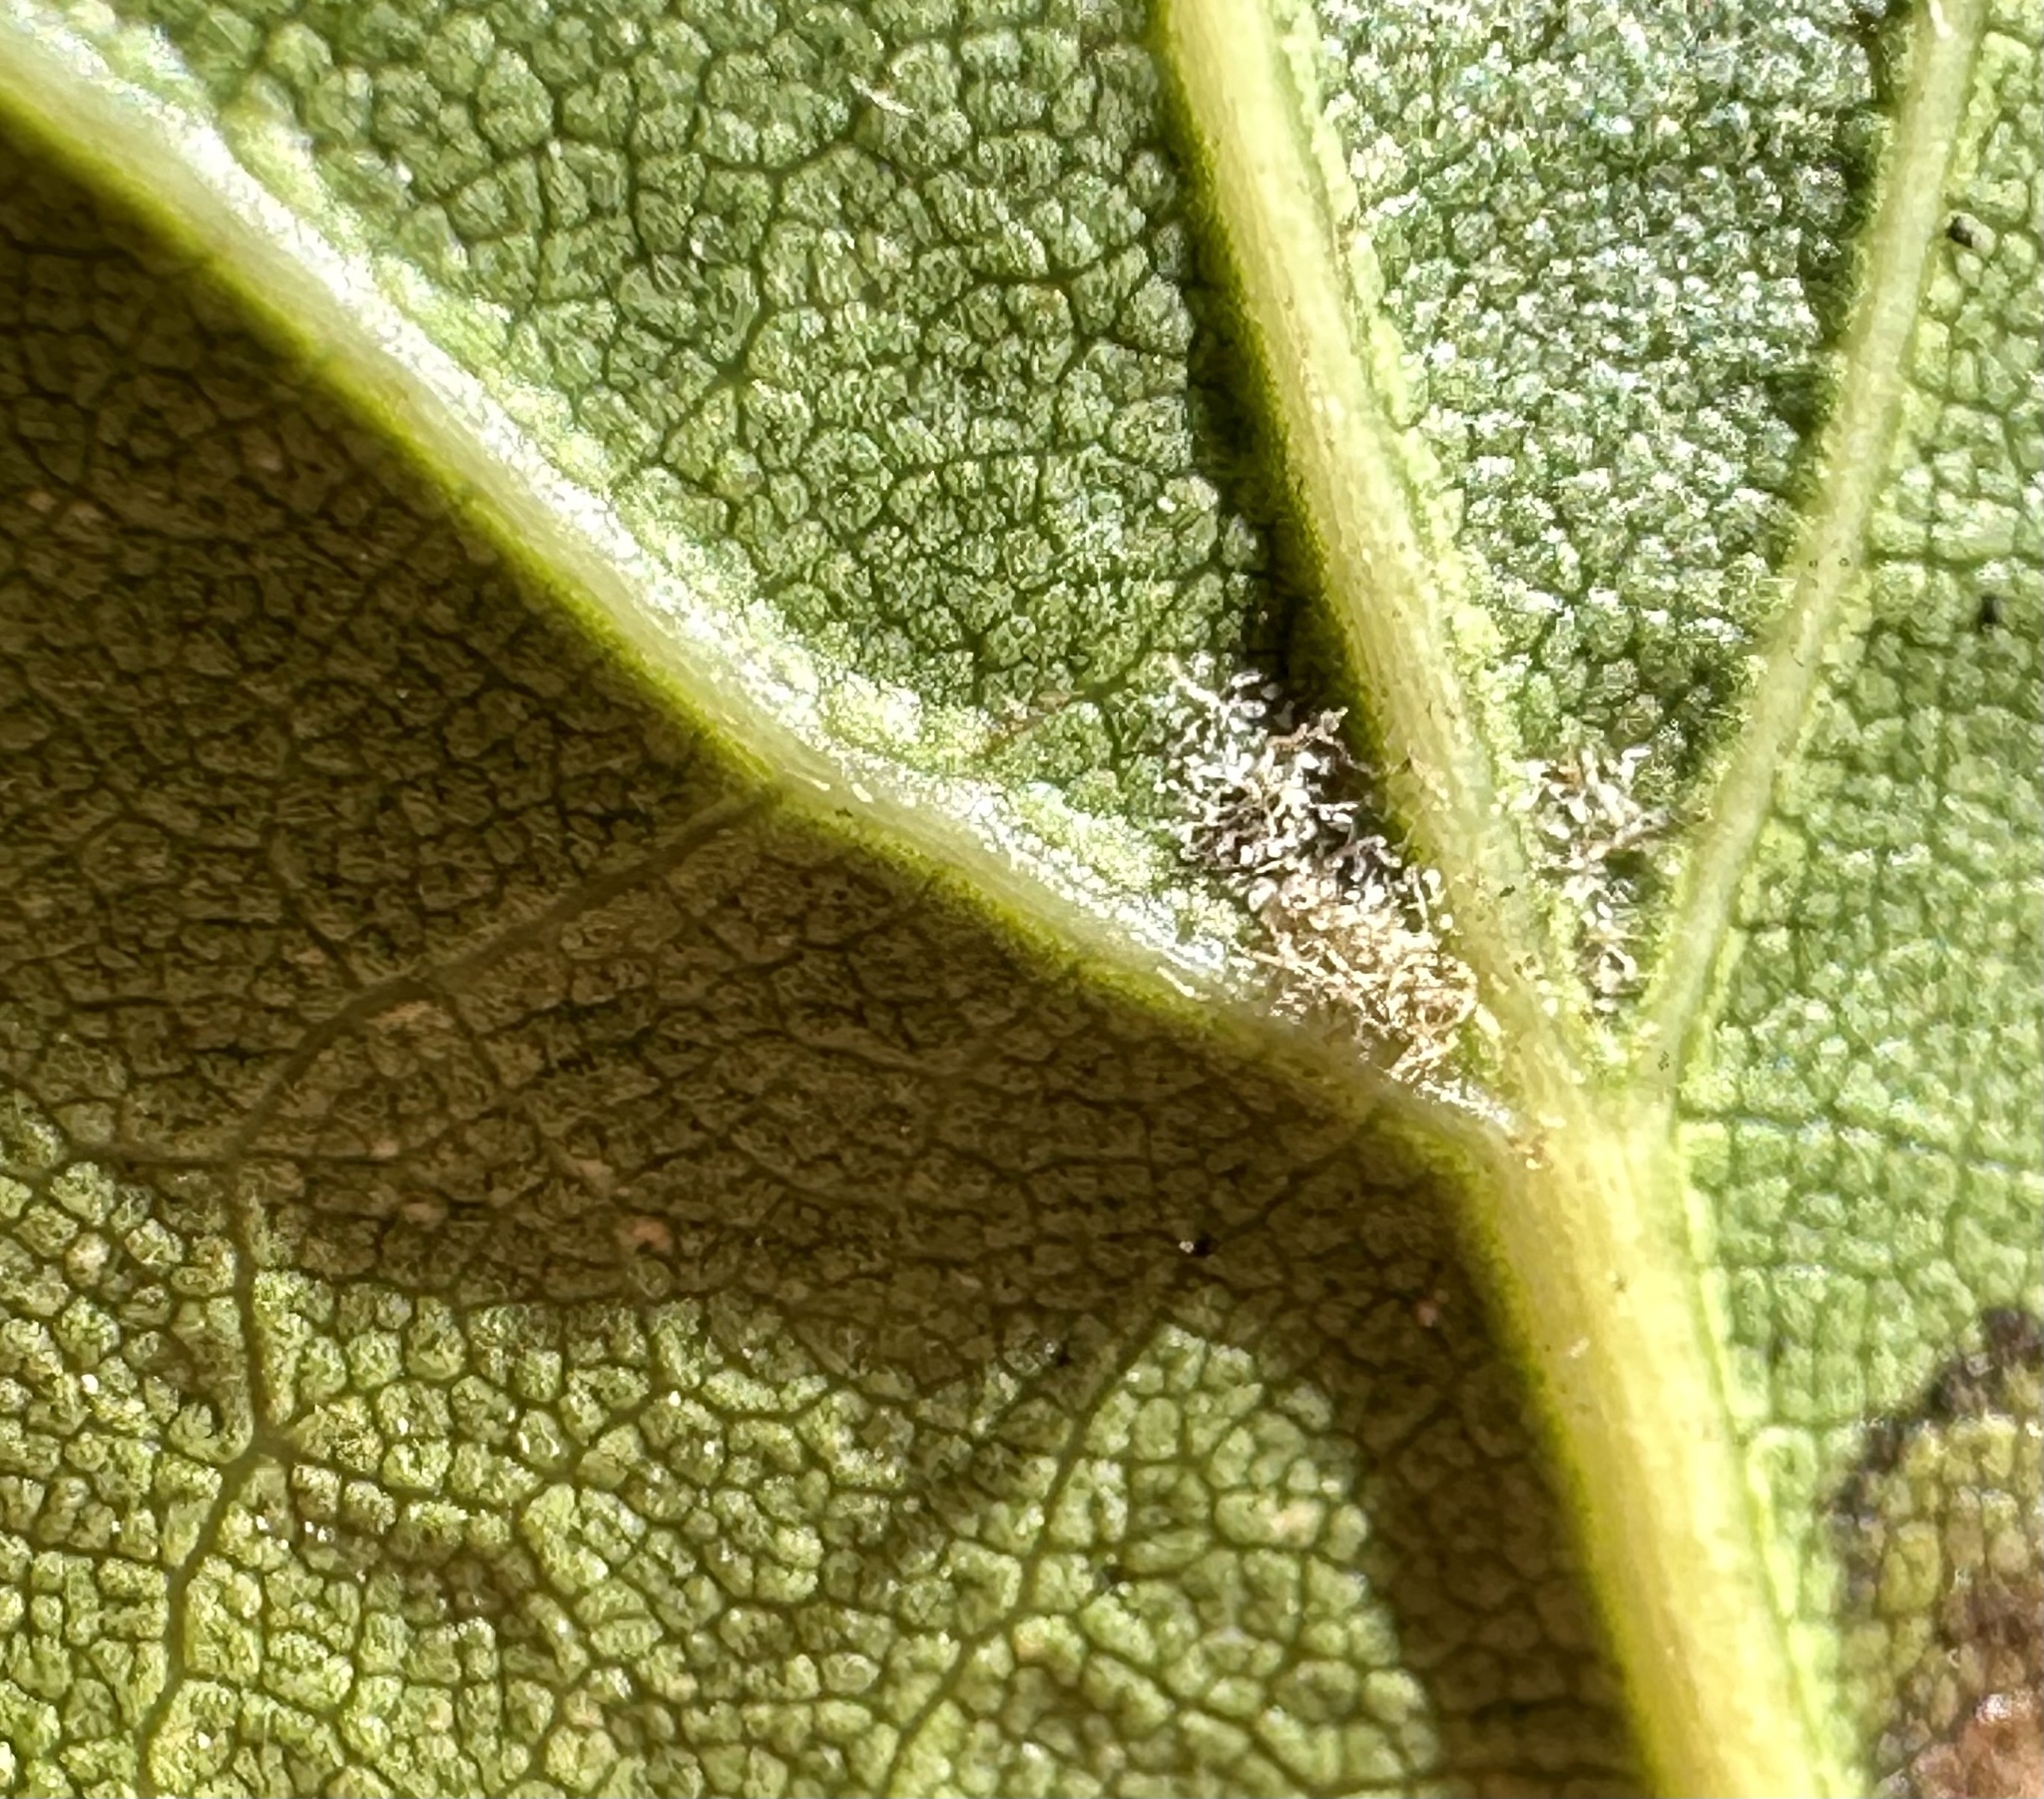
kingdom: Plantae
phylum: Tracheophyta
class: Magnoliopsida
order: Fagales
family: Fagaceae
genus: Quercus
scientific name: Quercus agrifolia
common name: California live oak
